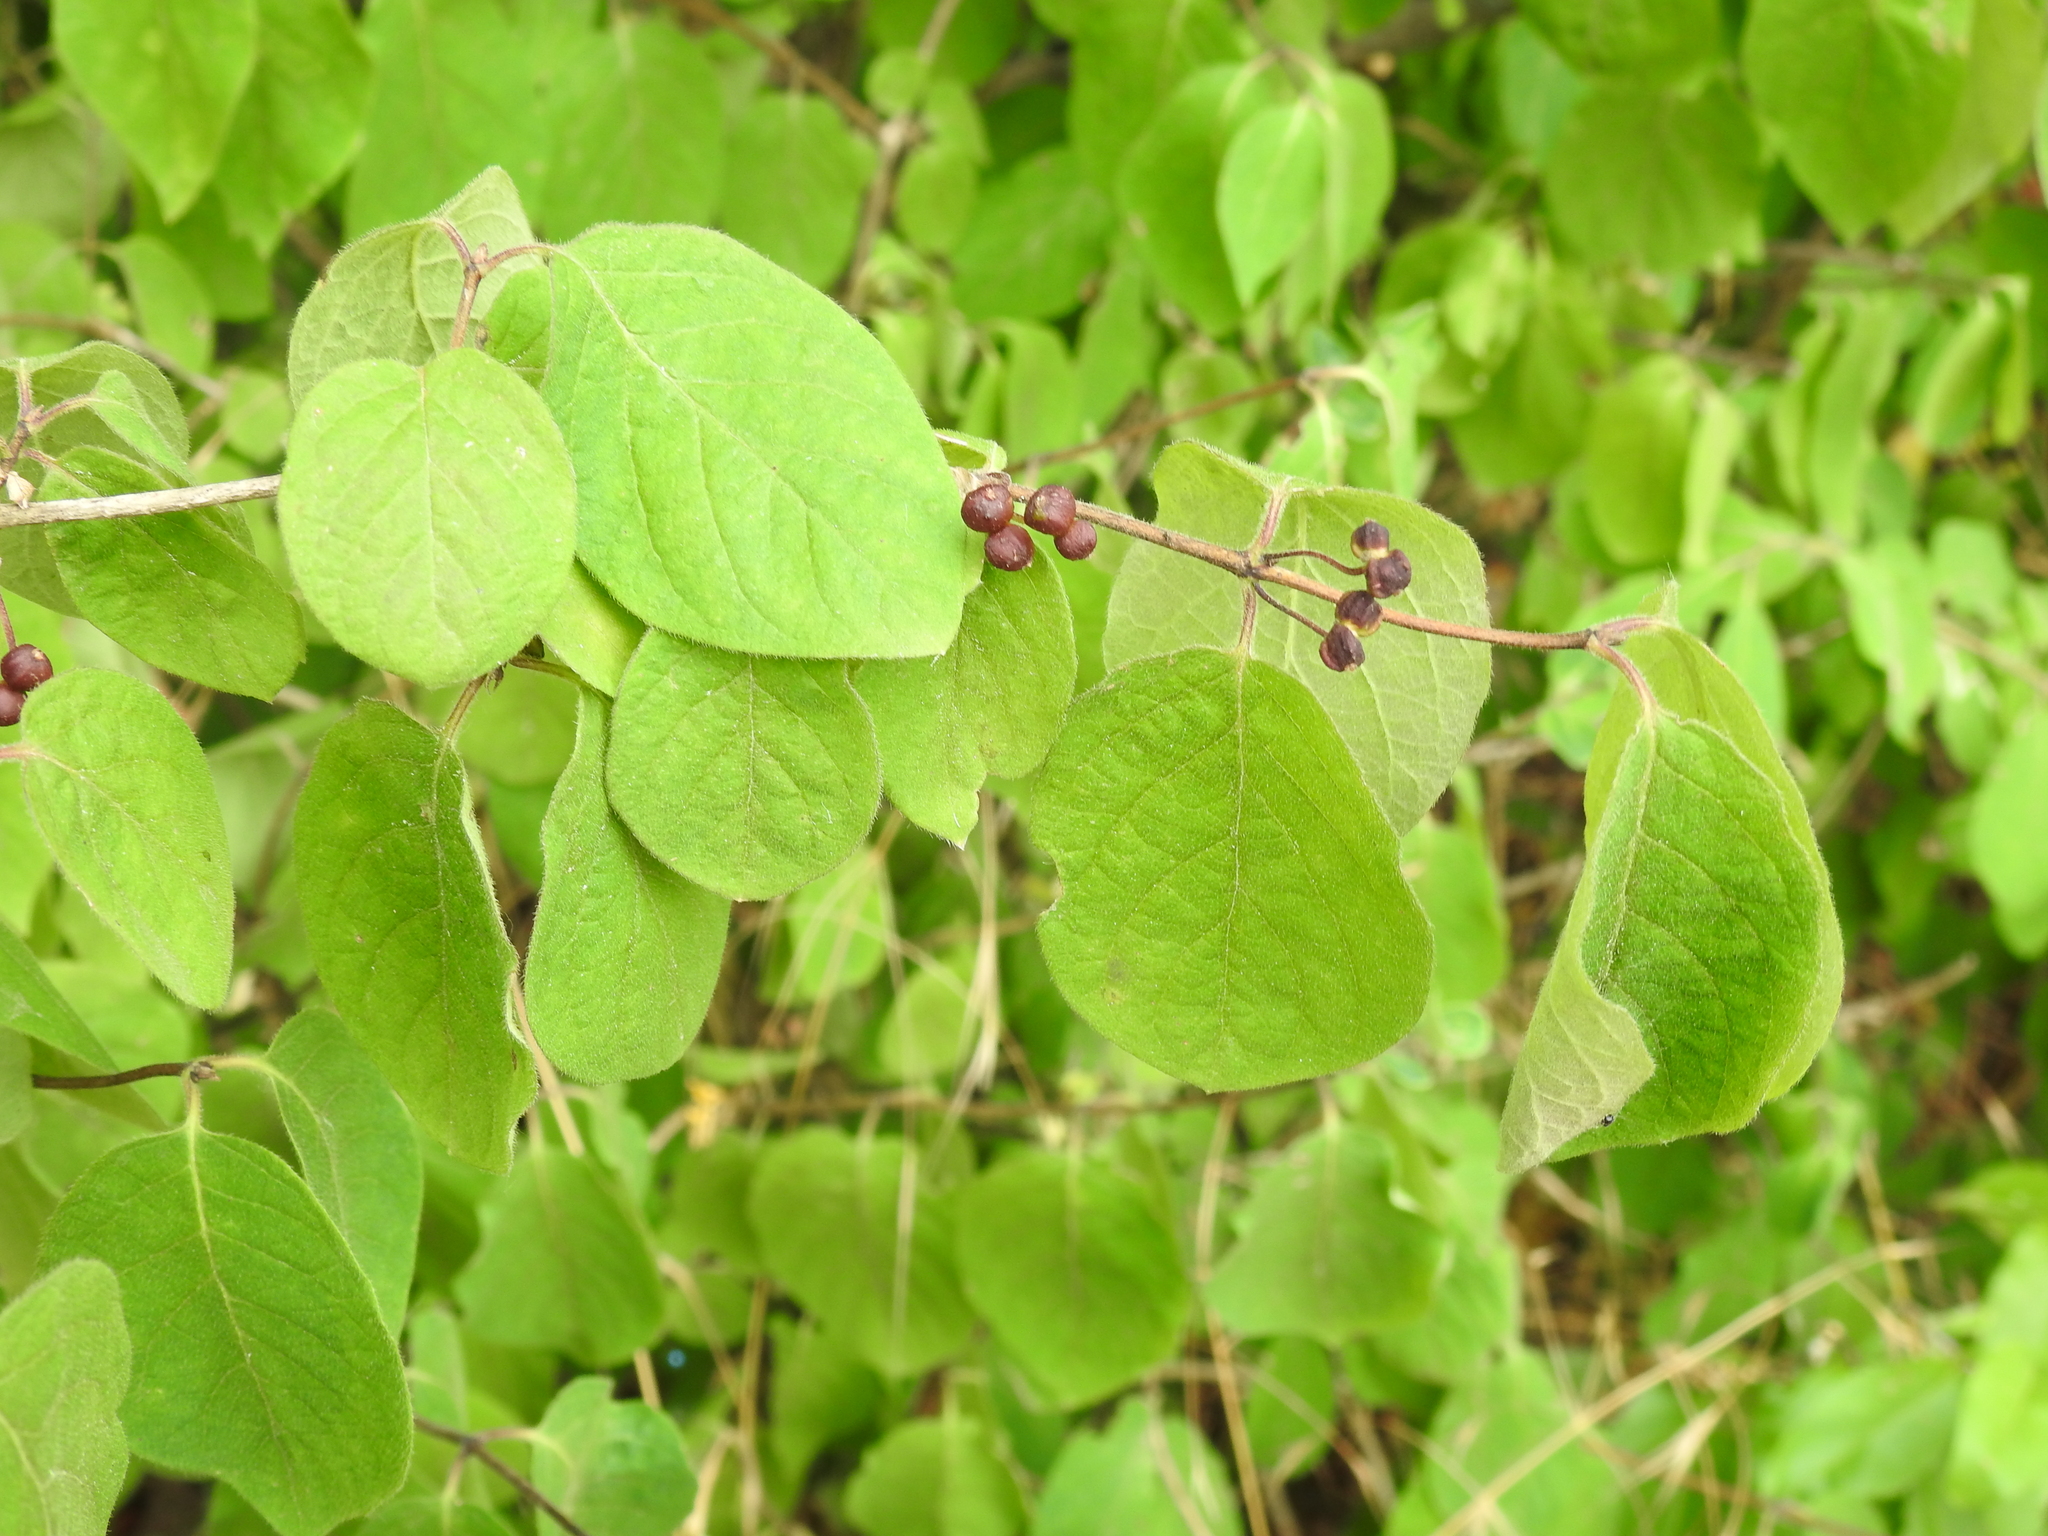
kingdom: Plantae
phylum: Tracheophyta
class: Magnoliopsida
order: Dipsacales
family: Caprifoliaceae
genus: Lonicera
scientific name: Lonicera xylosteum
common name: Fly honeysuckle
